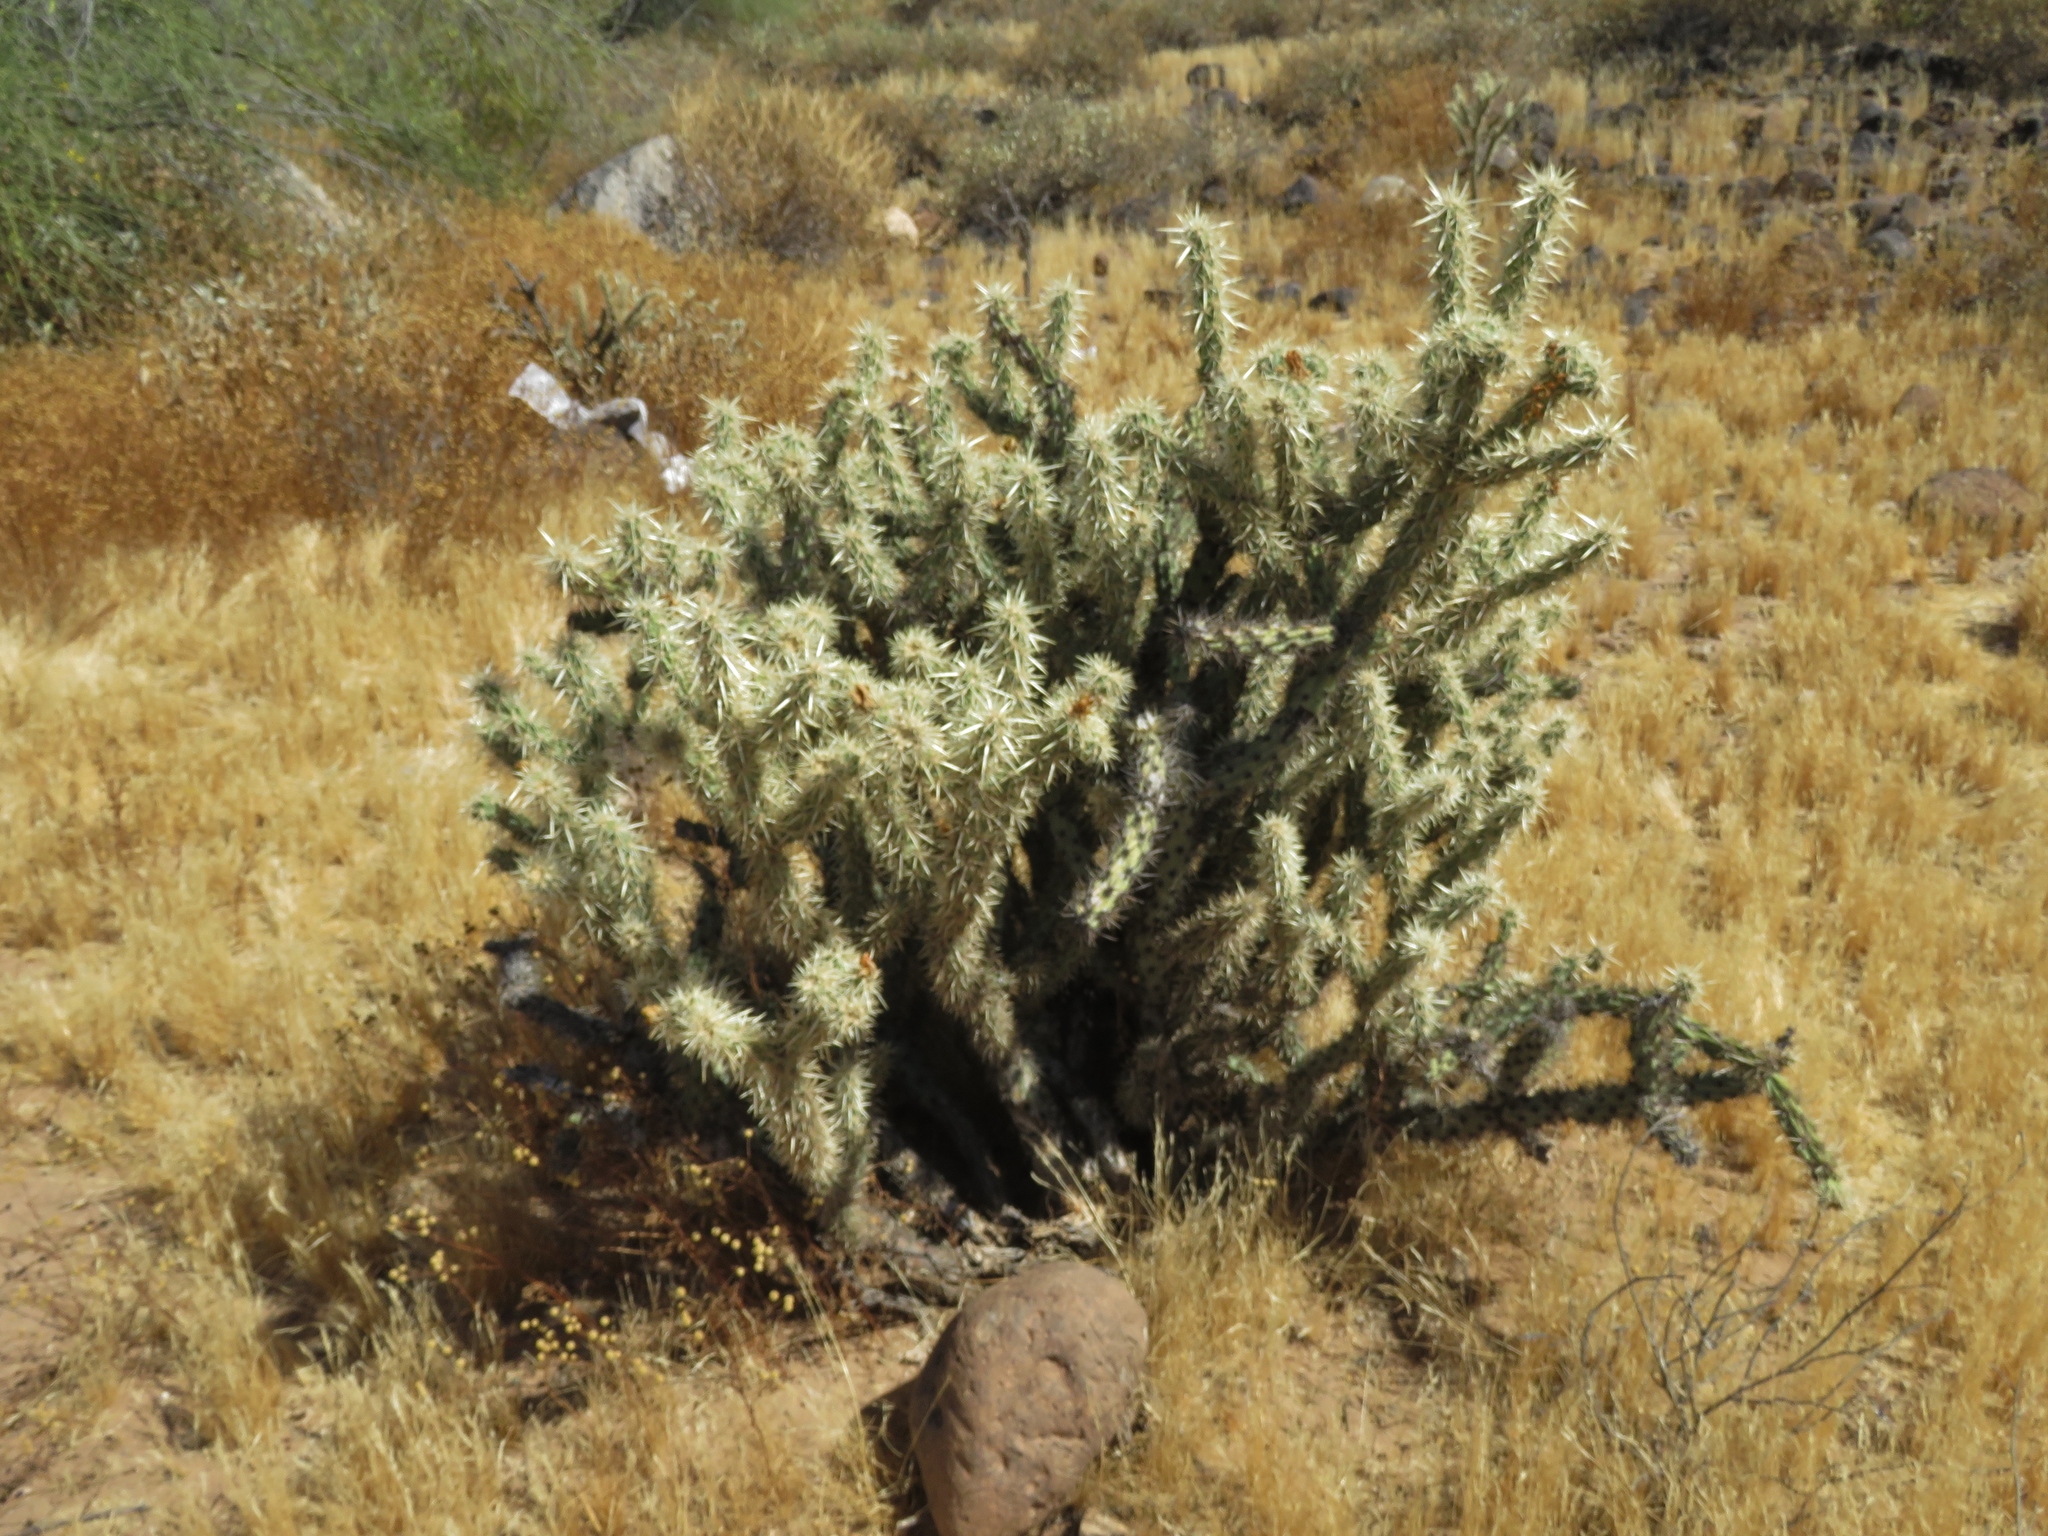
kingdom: Plantae
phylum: Tracheophyta
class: Magnoliopsida
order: Caryophyllales
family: Cactaceae
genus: Cylindropuntia
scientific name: Cylindropuntia acanthocarpa
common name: Buckhorn cholla
